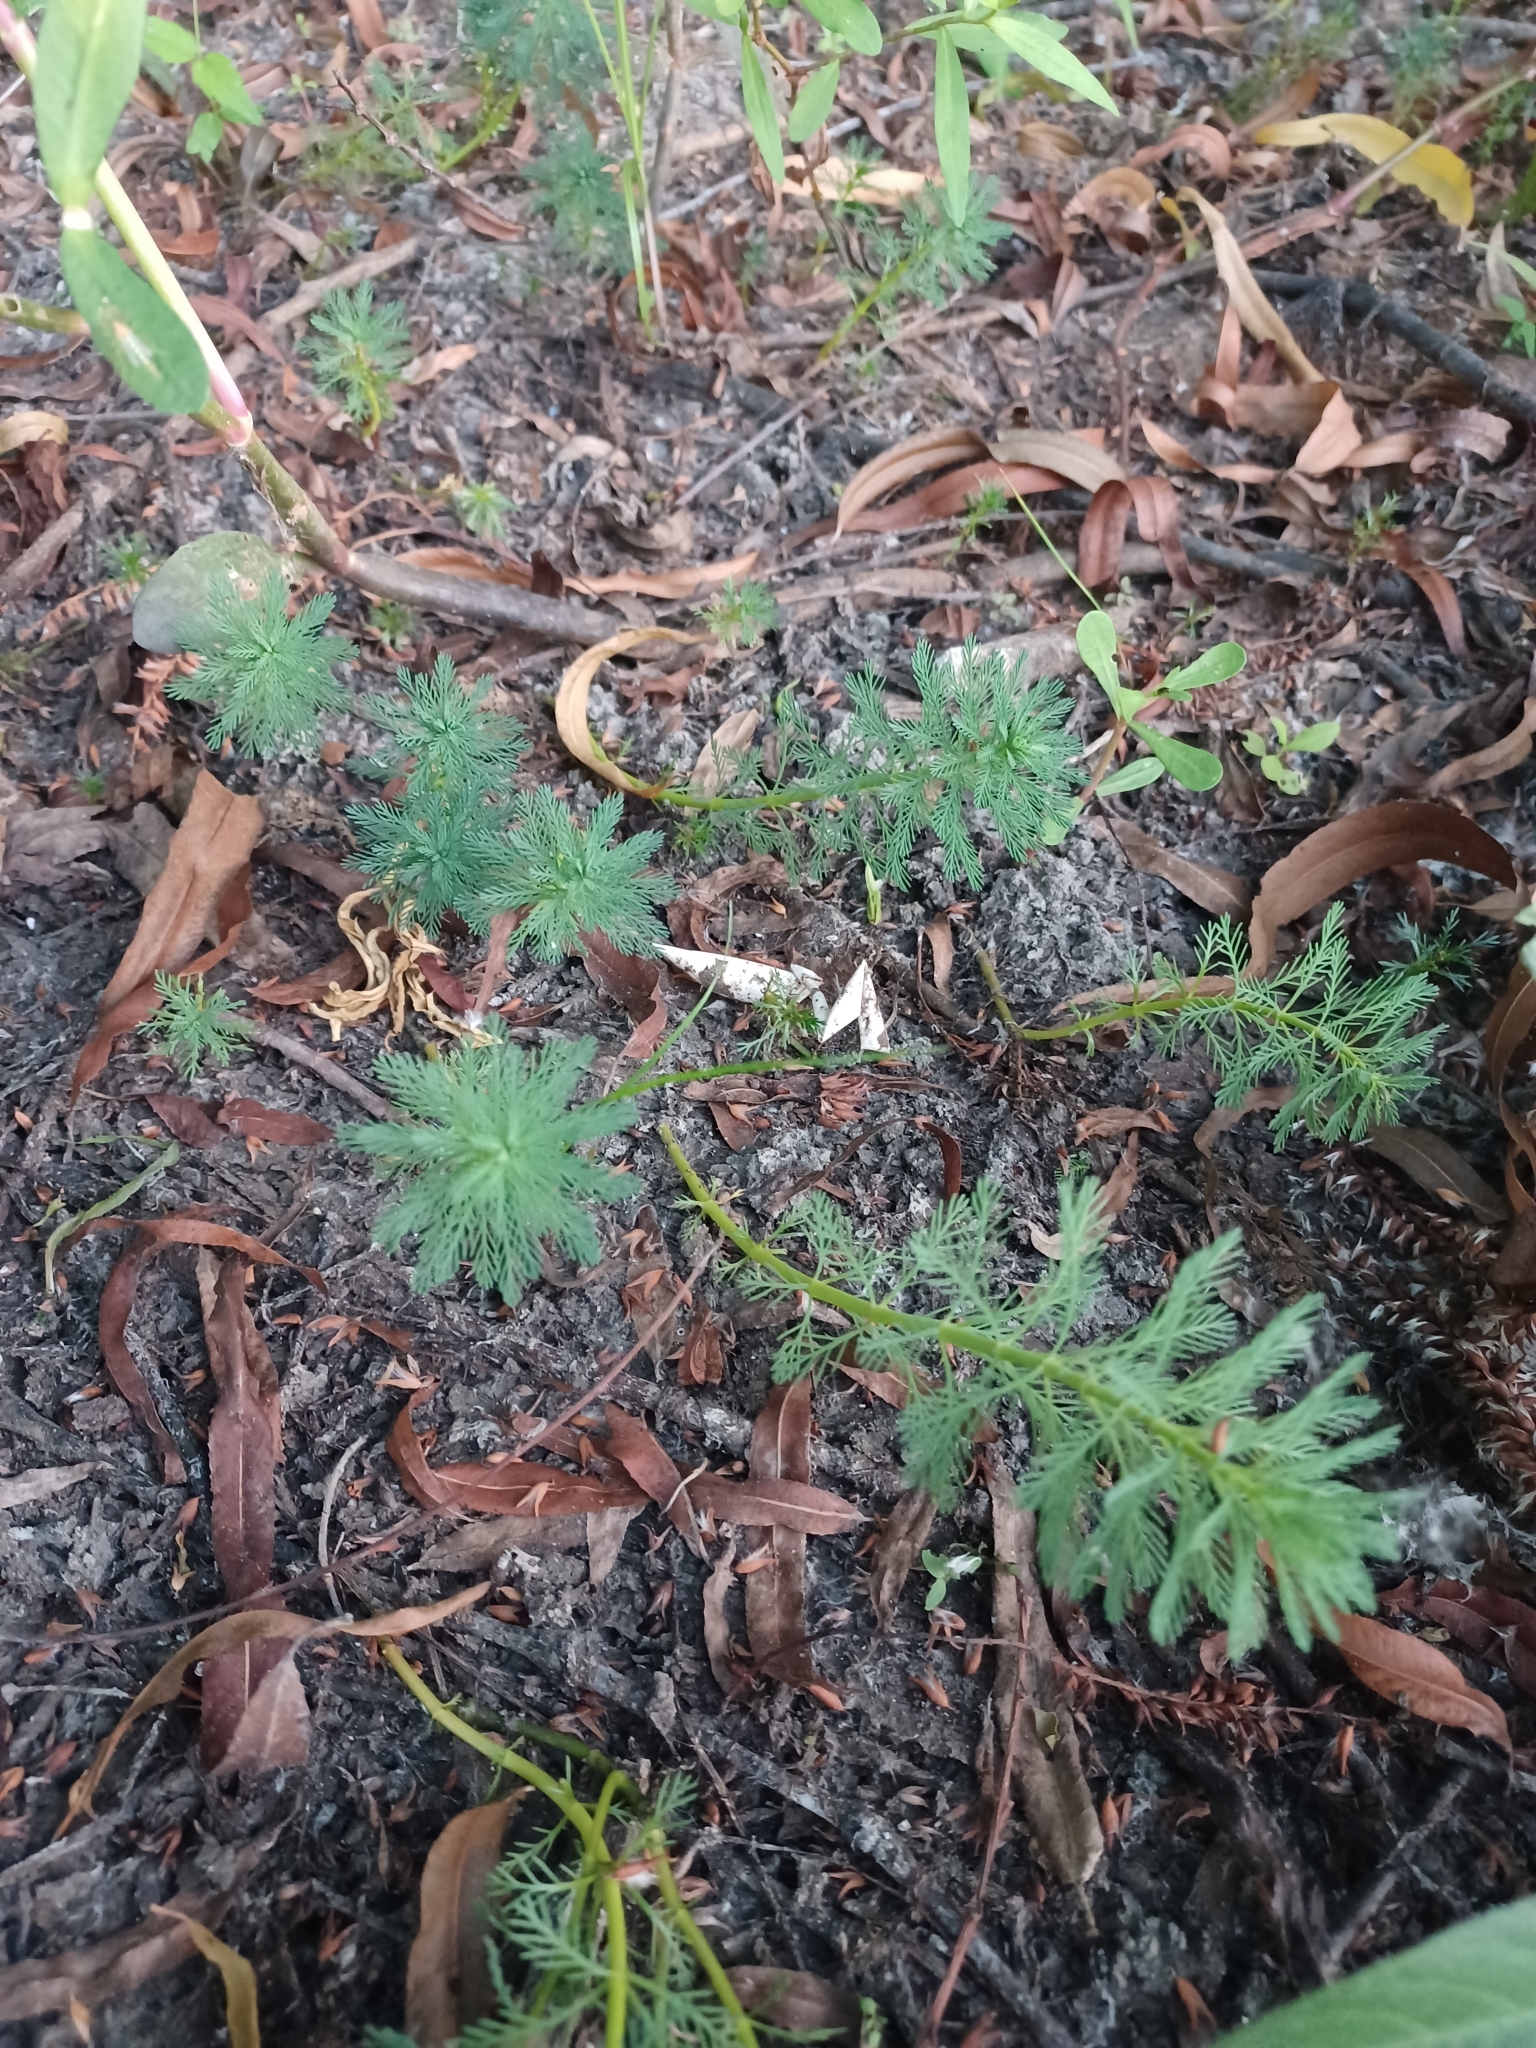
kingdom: Plantae
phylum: Tracheophyta
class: Magnoliopsida
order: Saxifragales
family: Haloragaceae
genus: Myriophyllum
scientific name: Myriophyllum aquaticum
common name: Parrot's feather
